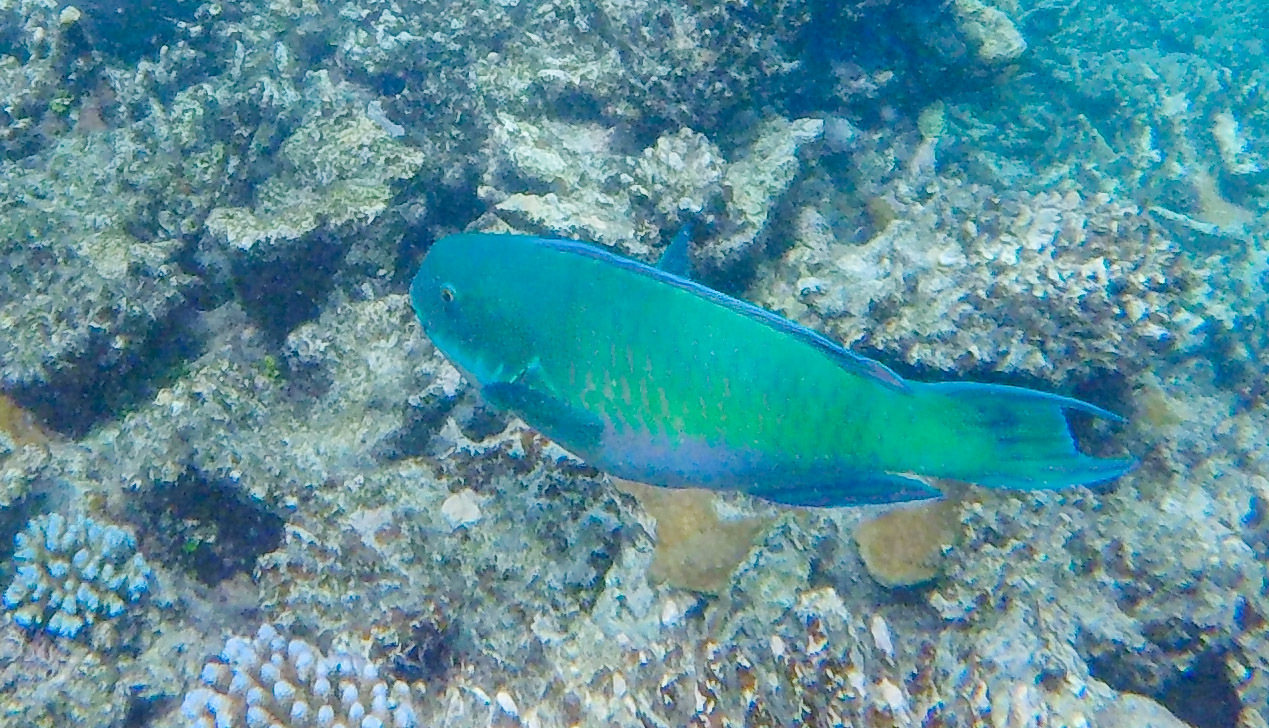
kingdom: Animalia
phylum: Chordata
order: Perciformes
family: Scaridae
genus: Chlorurus
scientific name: Chlorurus microrhinos
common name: Steephead parrotfish
